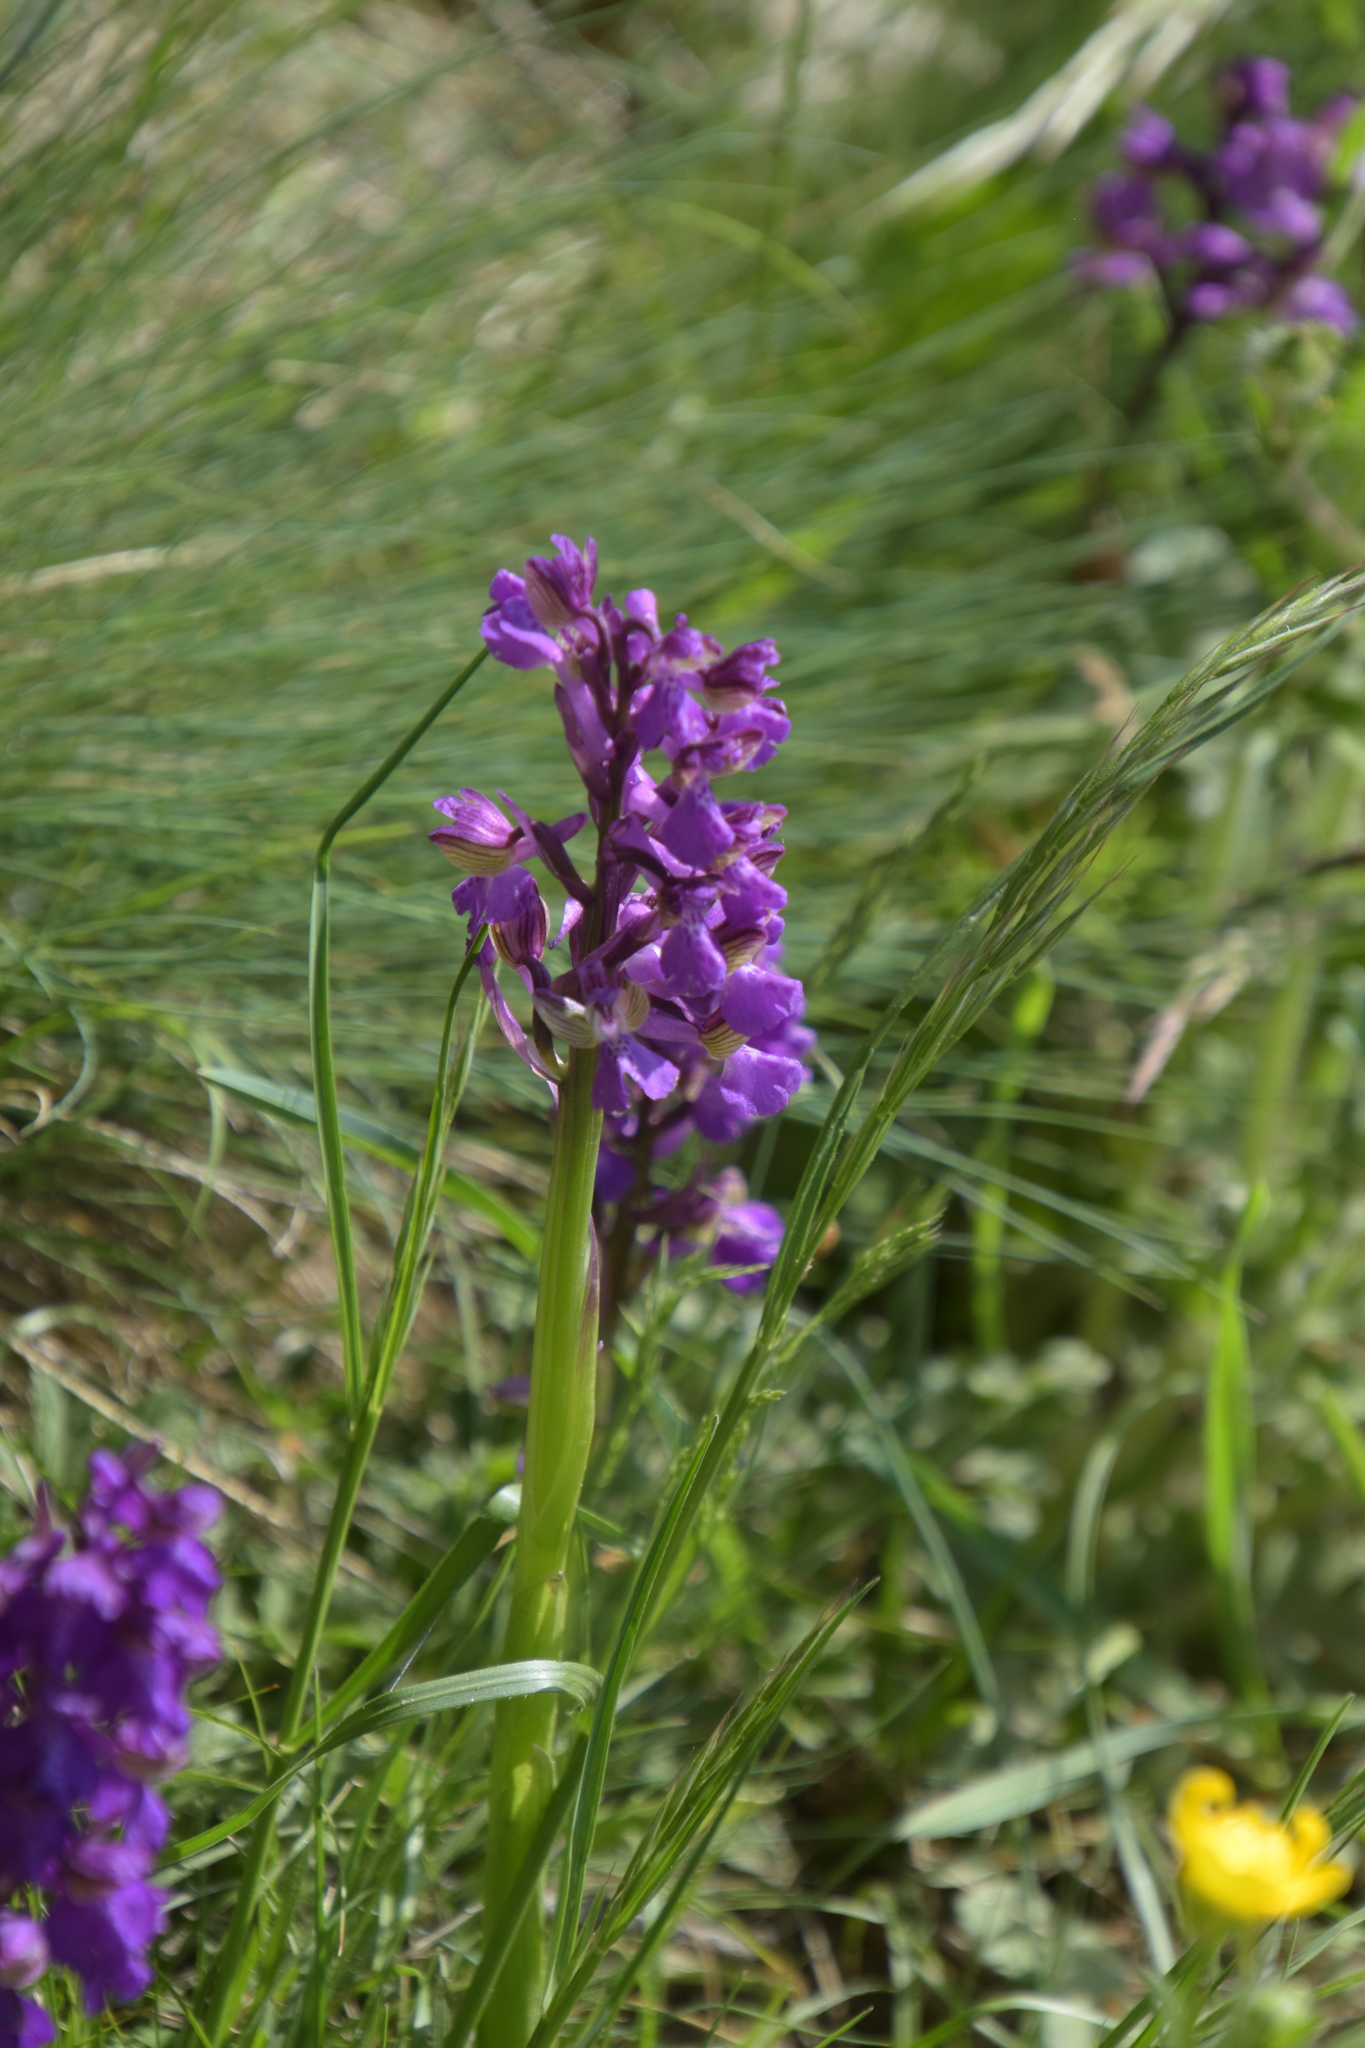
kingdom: Plantae
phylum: Tracheophyta
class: Liliopsida
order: Asparagales
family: Orchidaceae
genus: Anacamptis
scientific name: Anacamptis morio
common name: Green-winged orchid
